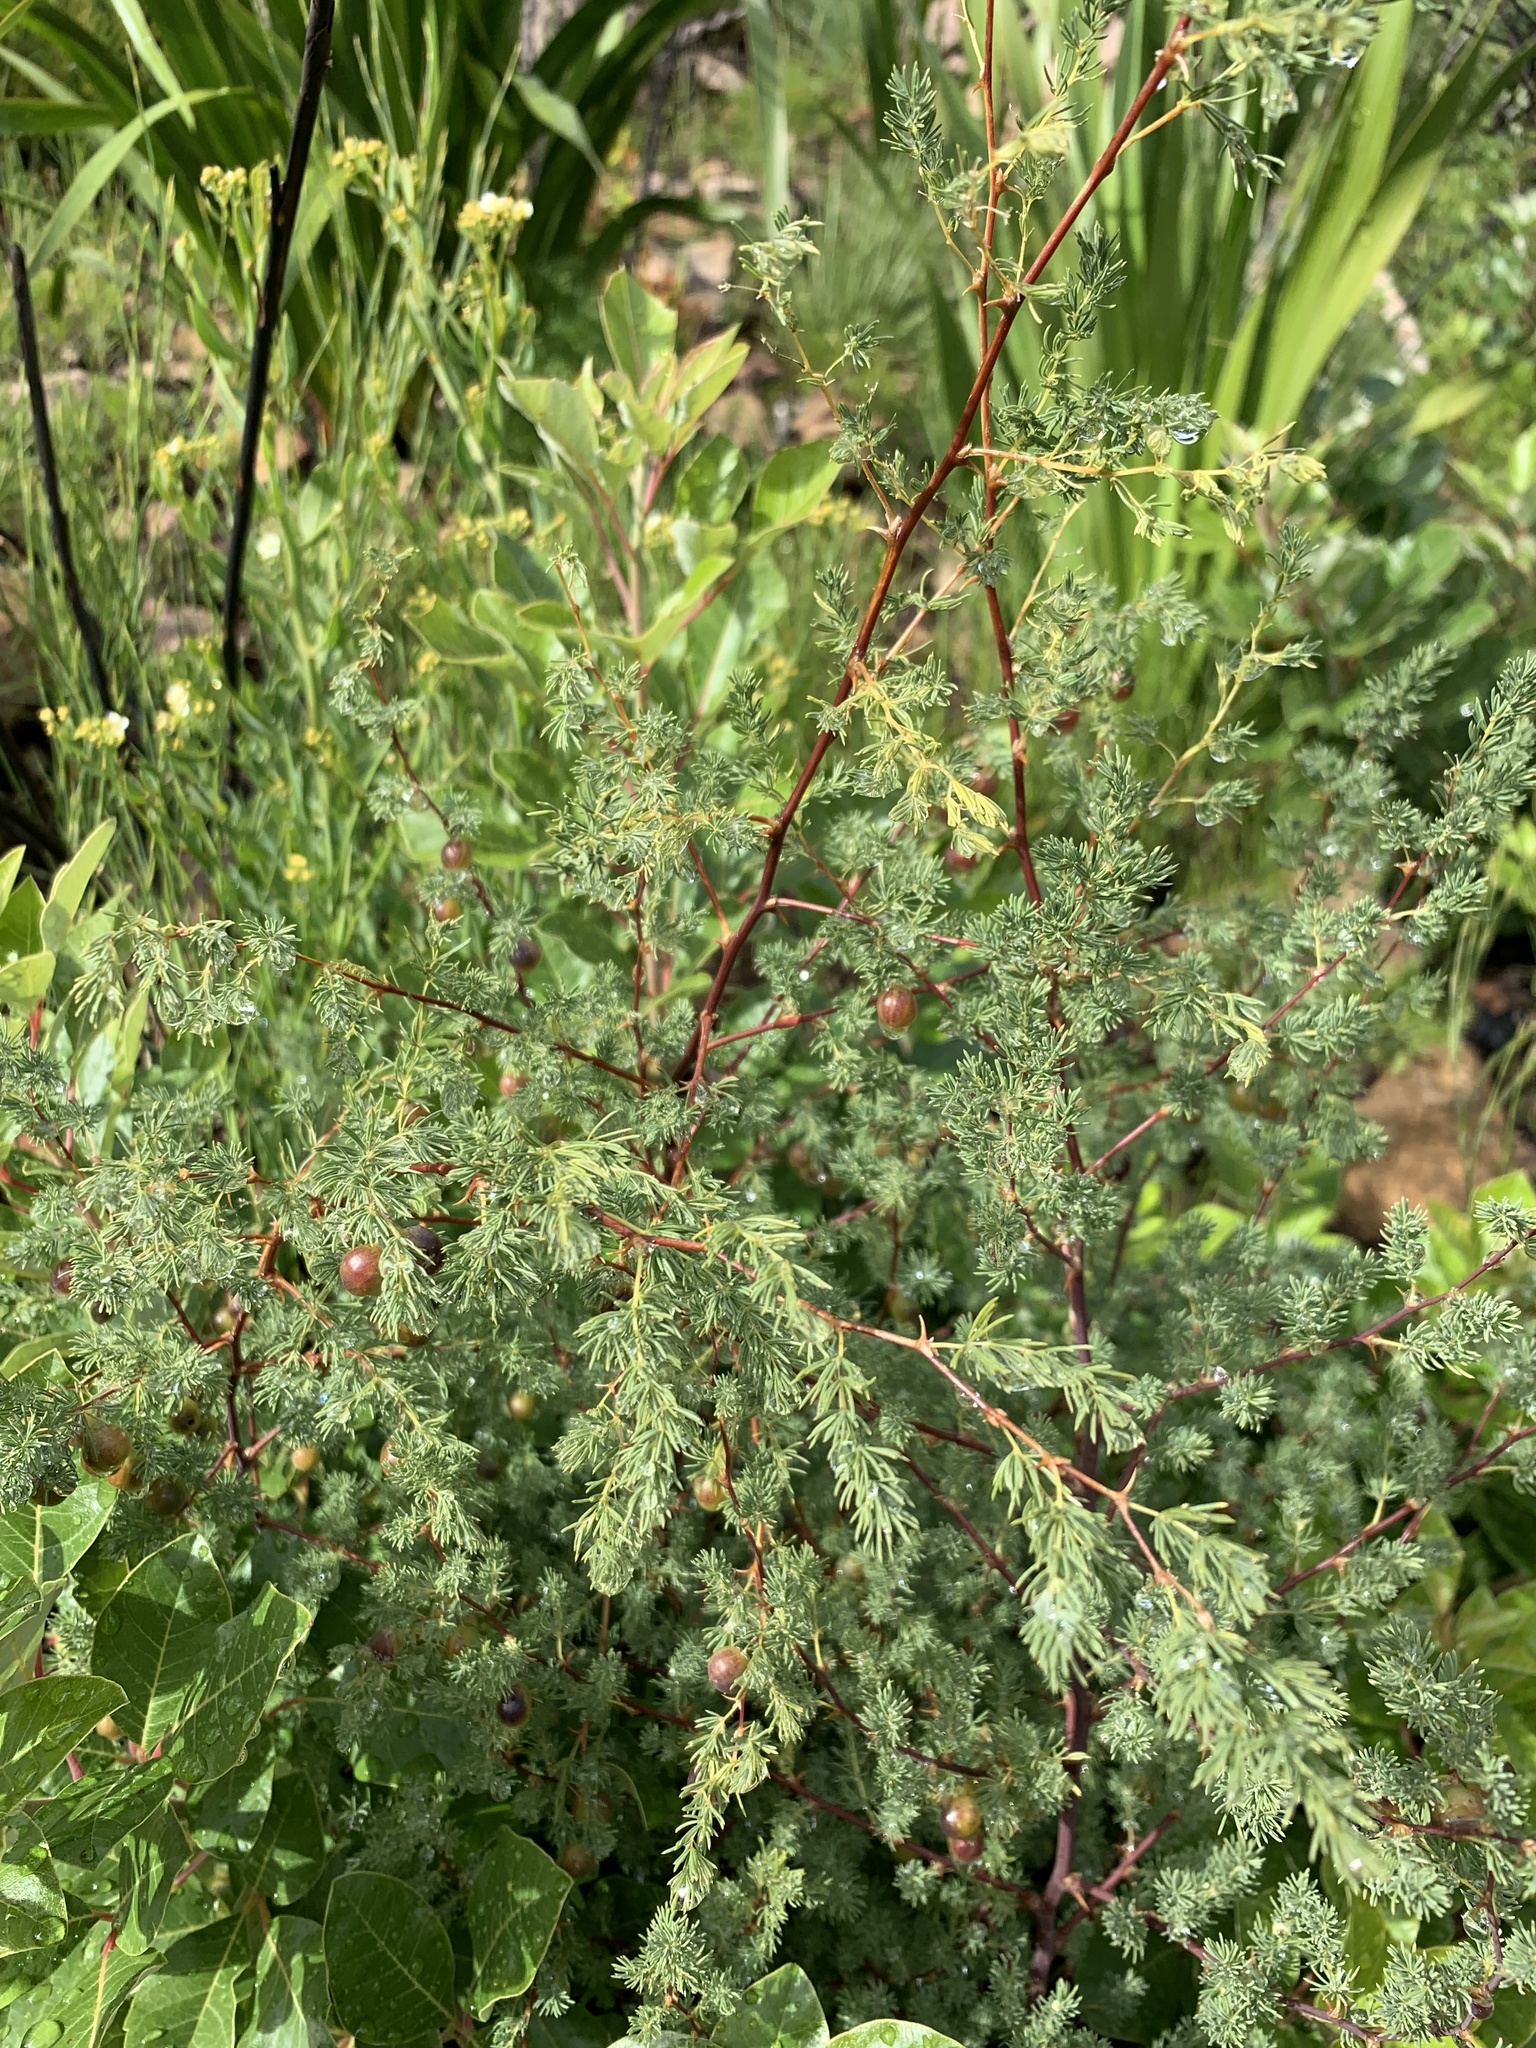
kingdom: Plantae
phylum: Tracheophyta
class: Liliopsida
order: Asparagales
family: Asparagaceae
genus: Asparagus
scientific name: Asparagus rubicundus
